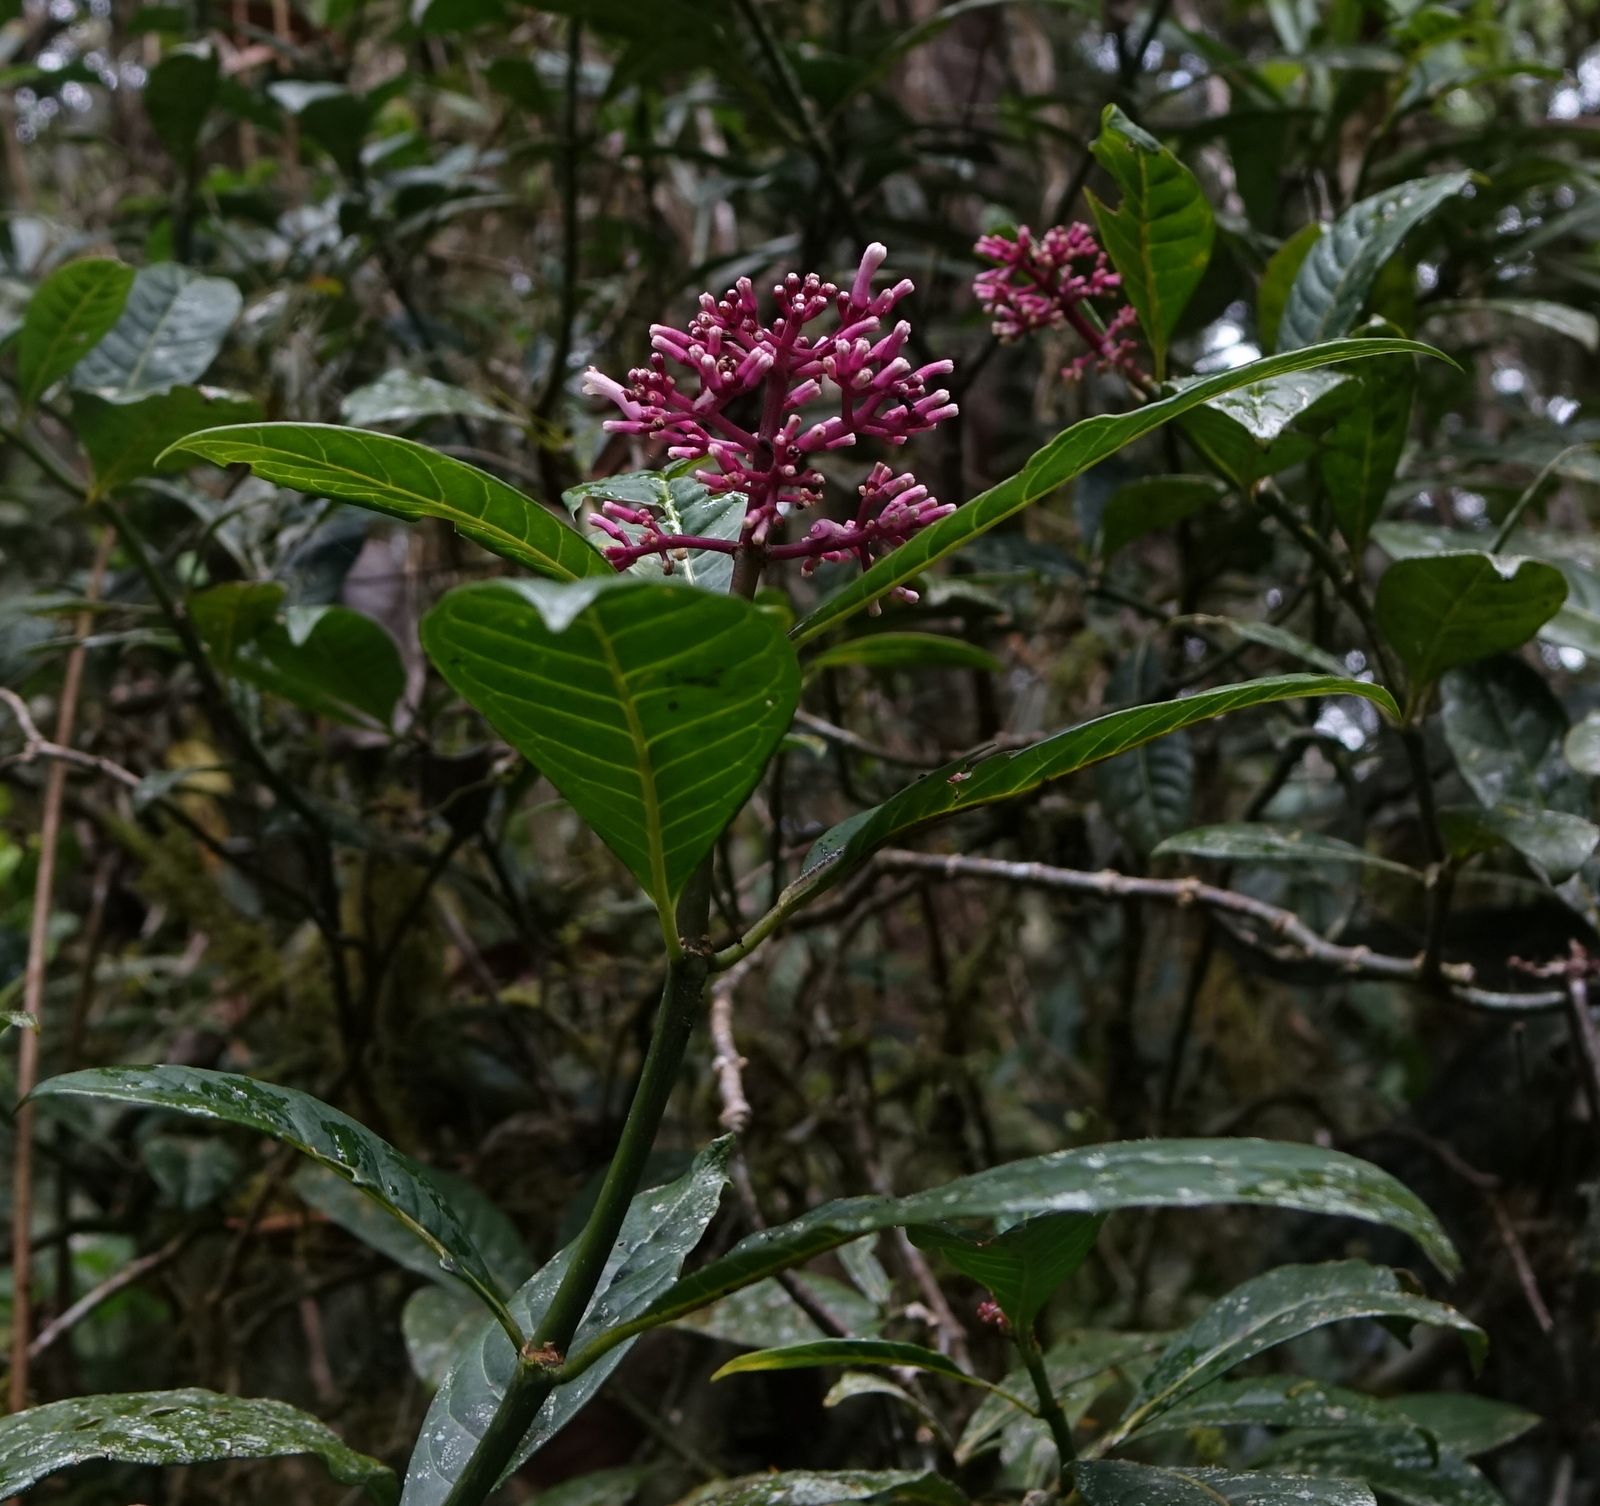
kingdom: Plantae
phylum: Tracheophyta
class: Magnoliopsida
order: Gentianales
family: Rubiaceae
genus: Chassalia
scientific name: Chassalia acutiflora
